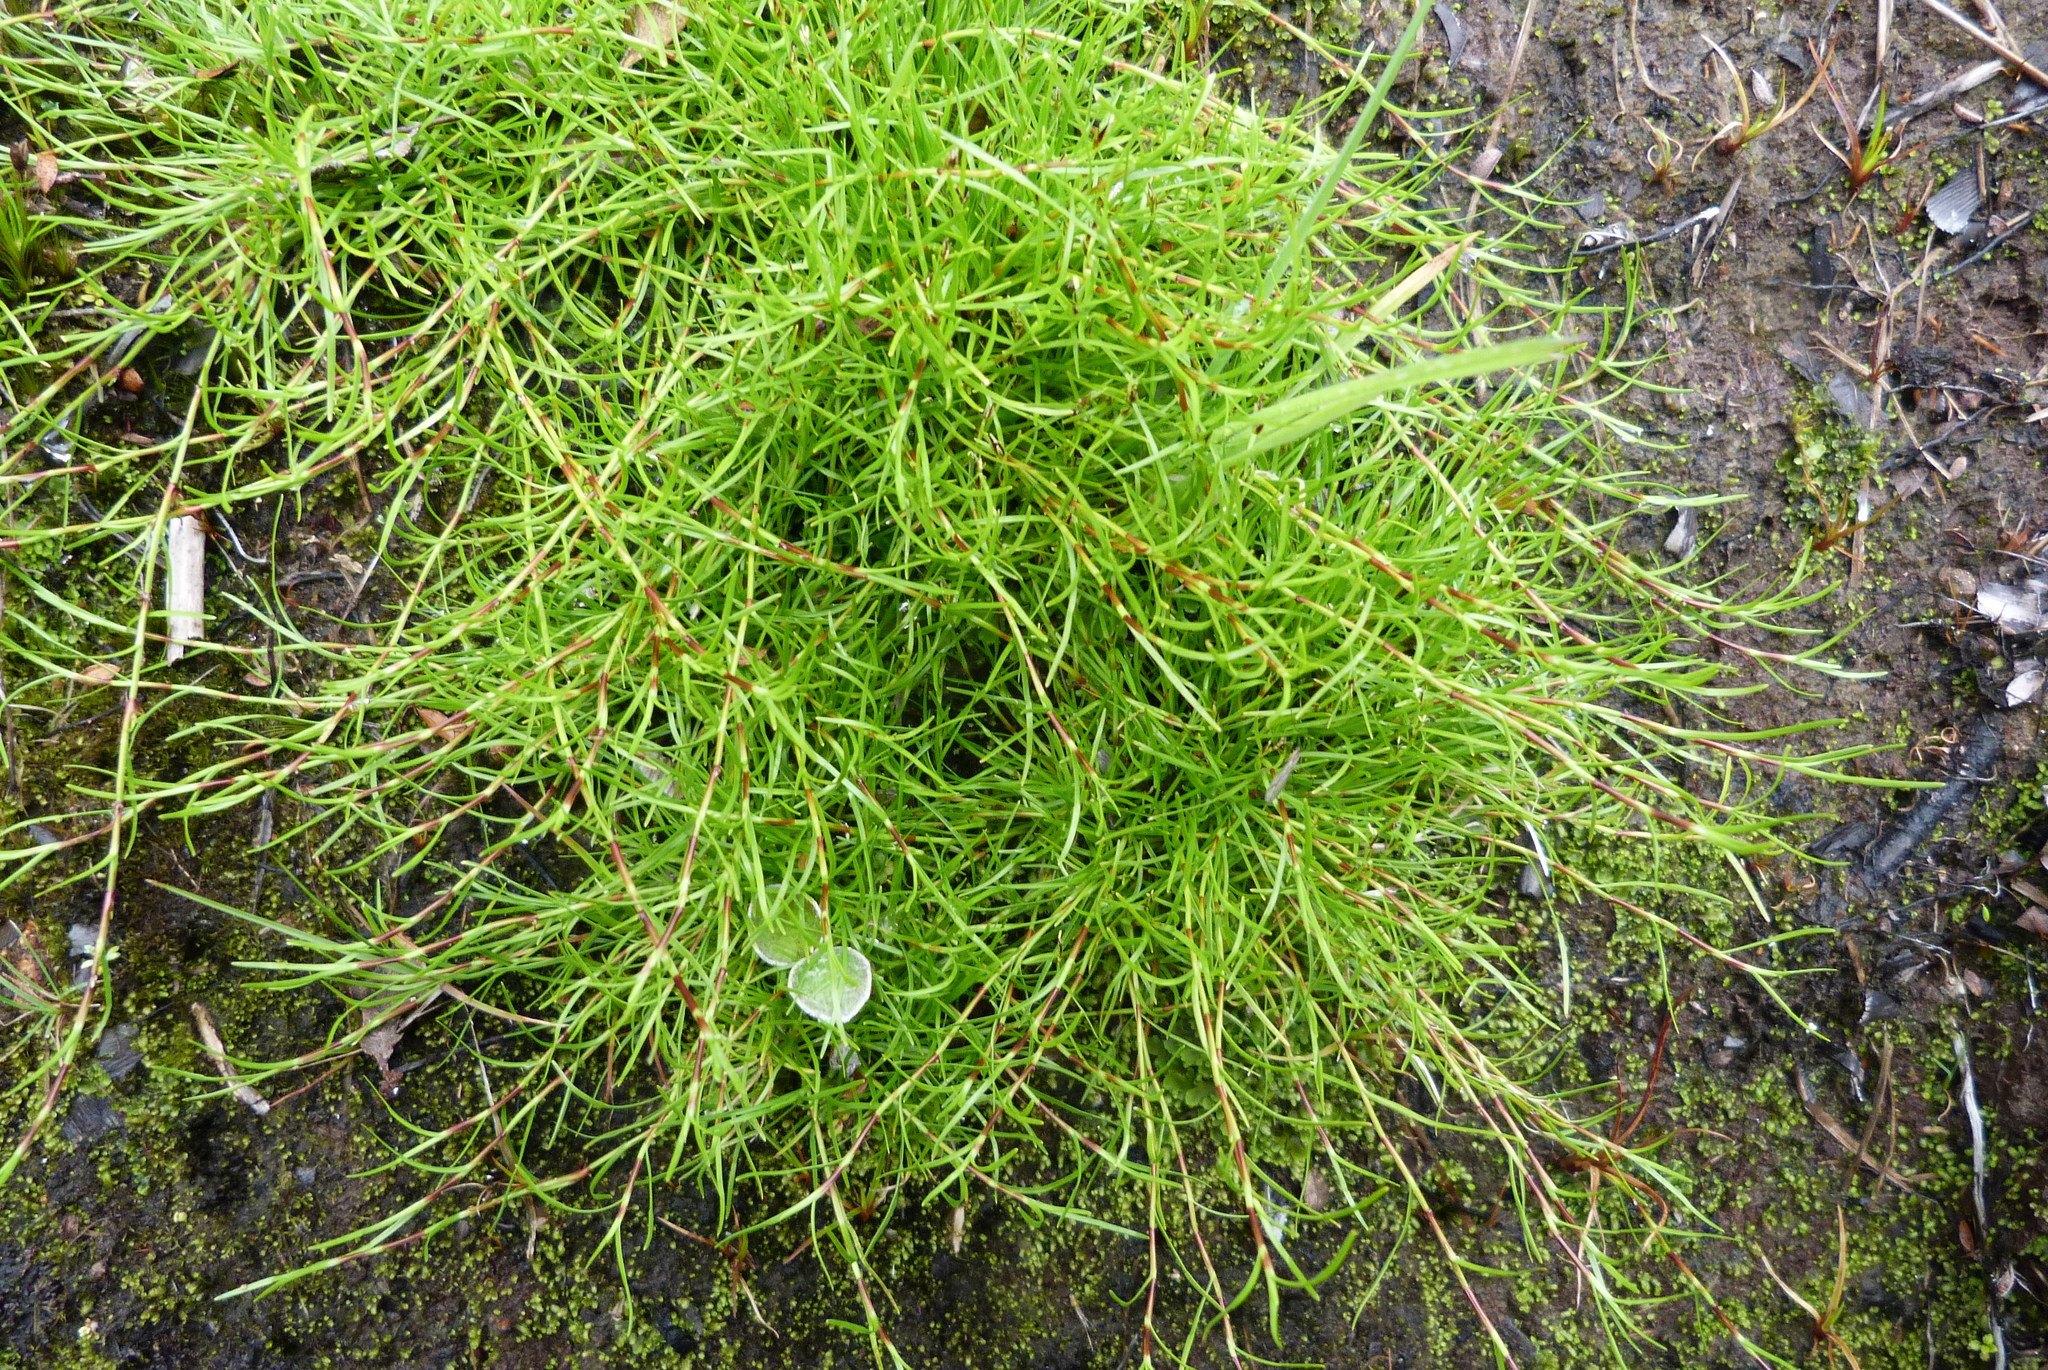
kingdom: Plantae
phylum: Tracheophyta
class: Liliopsida
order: Poales
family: Cyperaceae
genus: Schoenus
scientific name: Schoenus maschalinus
